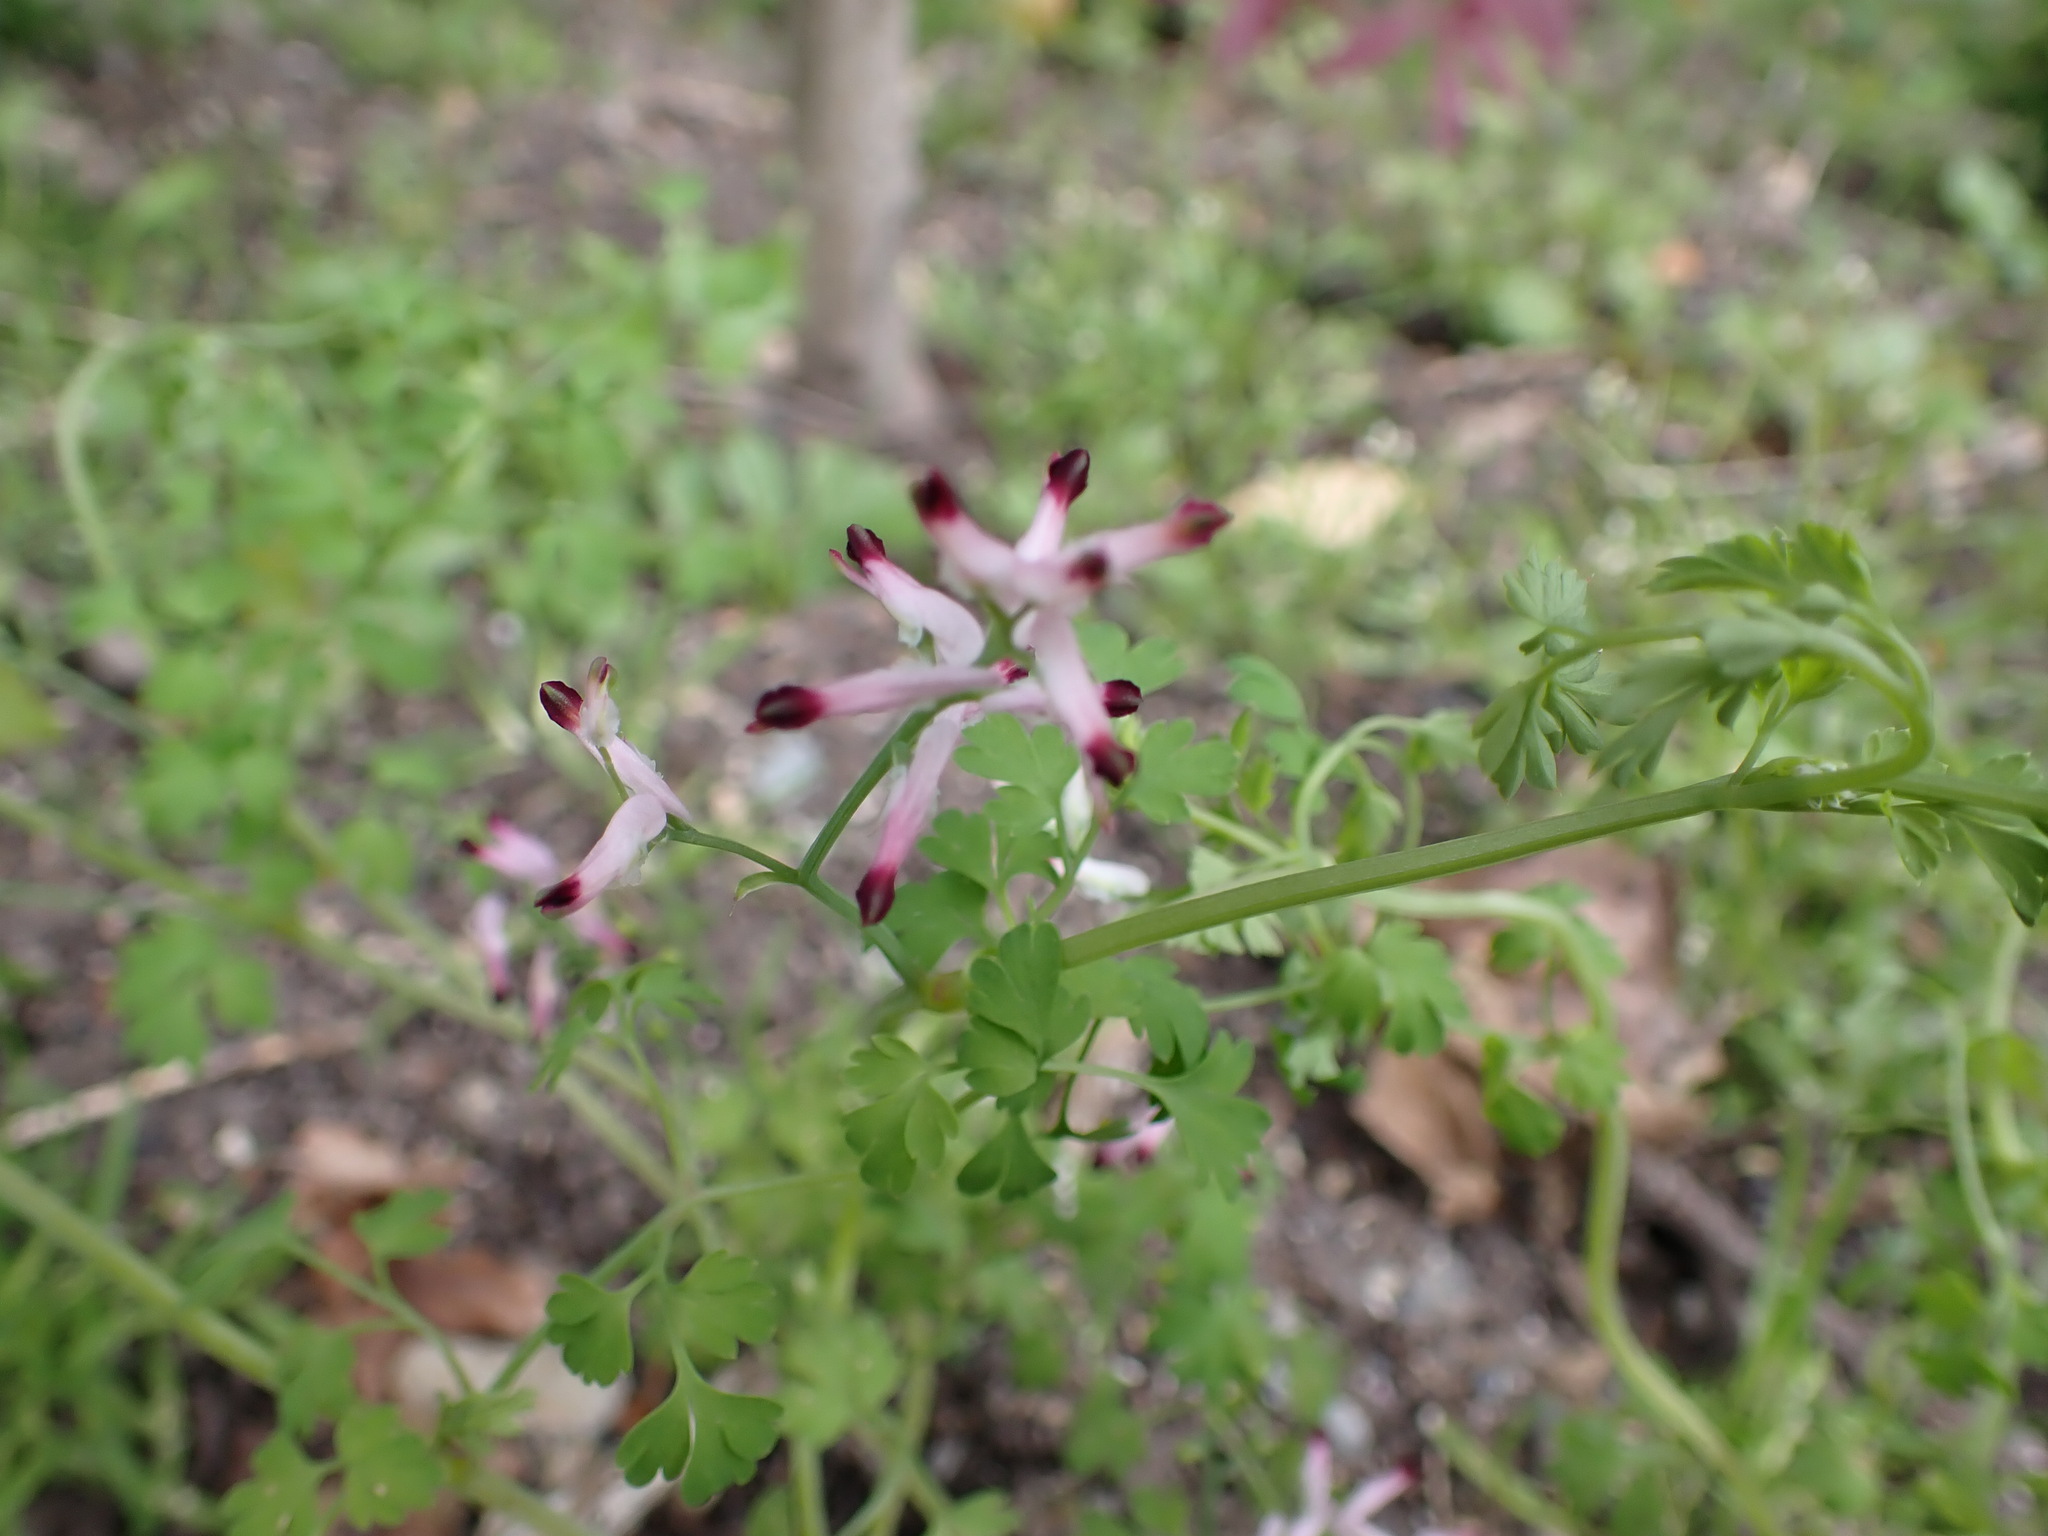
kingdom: Plantae
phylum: Tracheophyta
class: Magnoliopsida
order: Ranunculales
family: Papaveraceae
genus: Fumaria
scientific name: Fumaria muralis
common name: Common ramping-fumitory
